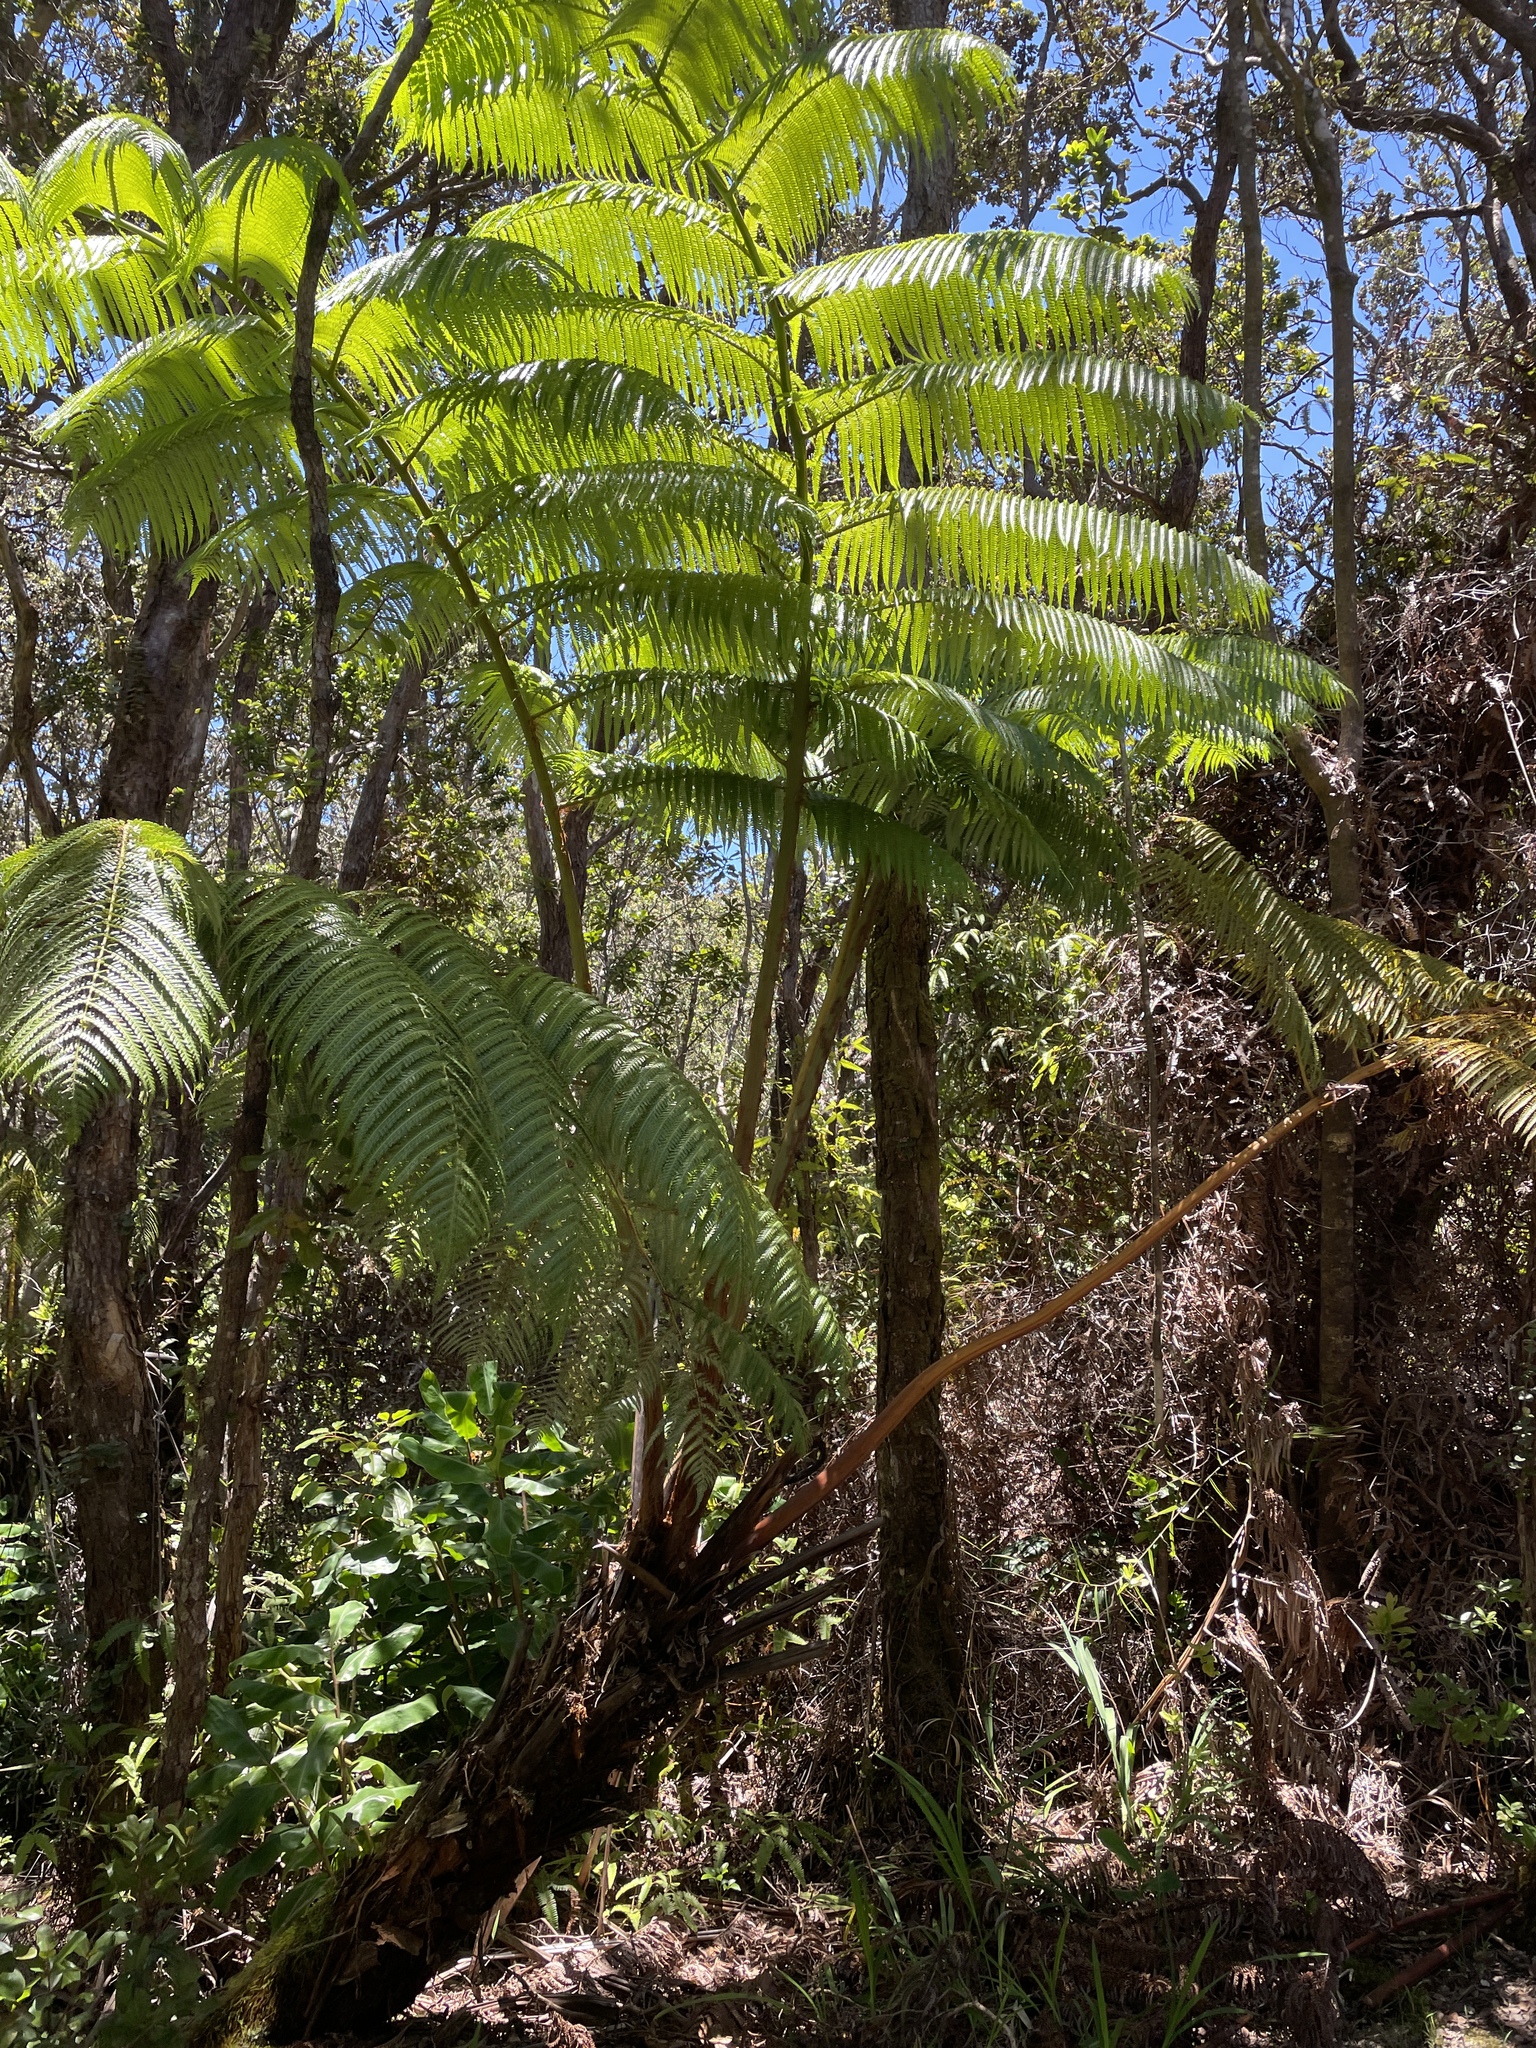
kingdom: Plantae
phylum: Tracheophyta
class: Polypodiopsida
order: Cyatheales
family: Cibotiaceae
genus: Cibotium
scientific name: Cibotium glaucum
